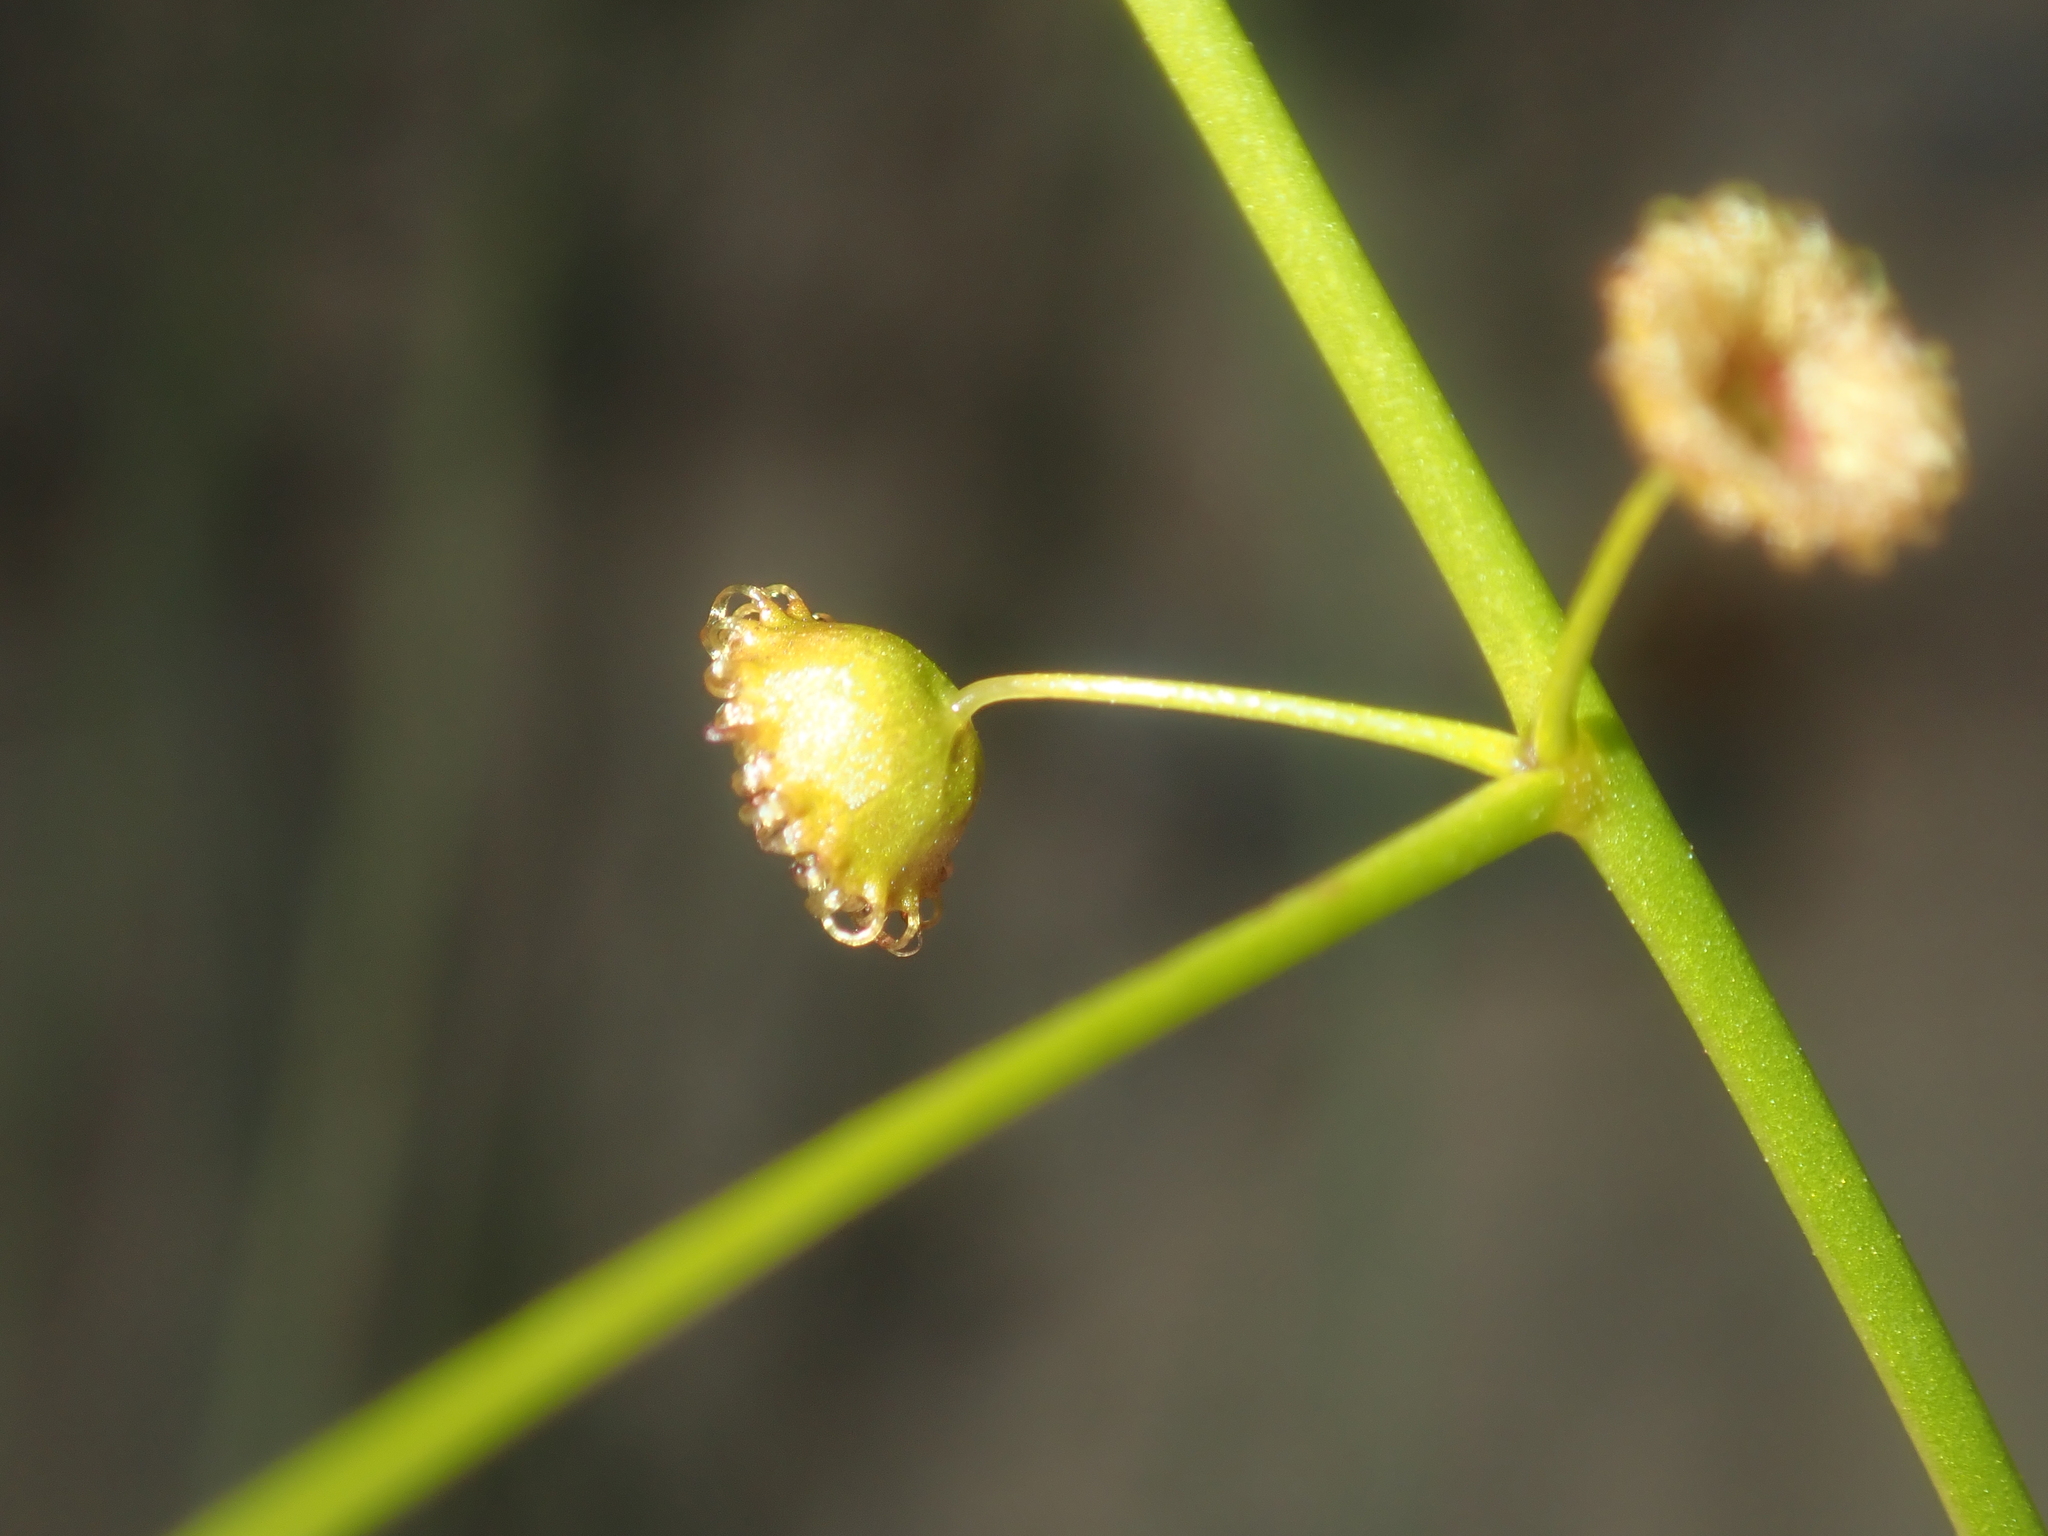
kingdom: Plantae
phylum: Tracheophyta
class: Magnoliopsida
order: Caryophyllales
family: Droseraceae
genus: Drosera
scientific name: Drosera hirsuta
